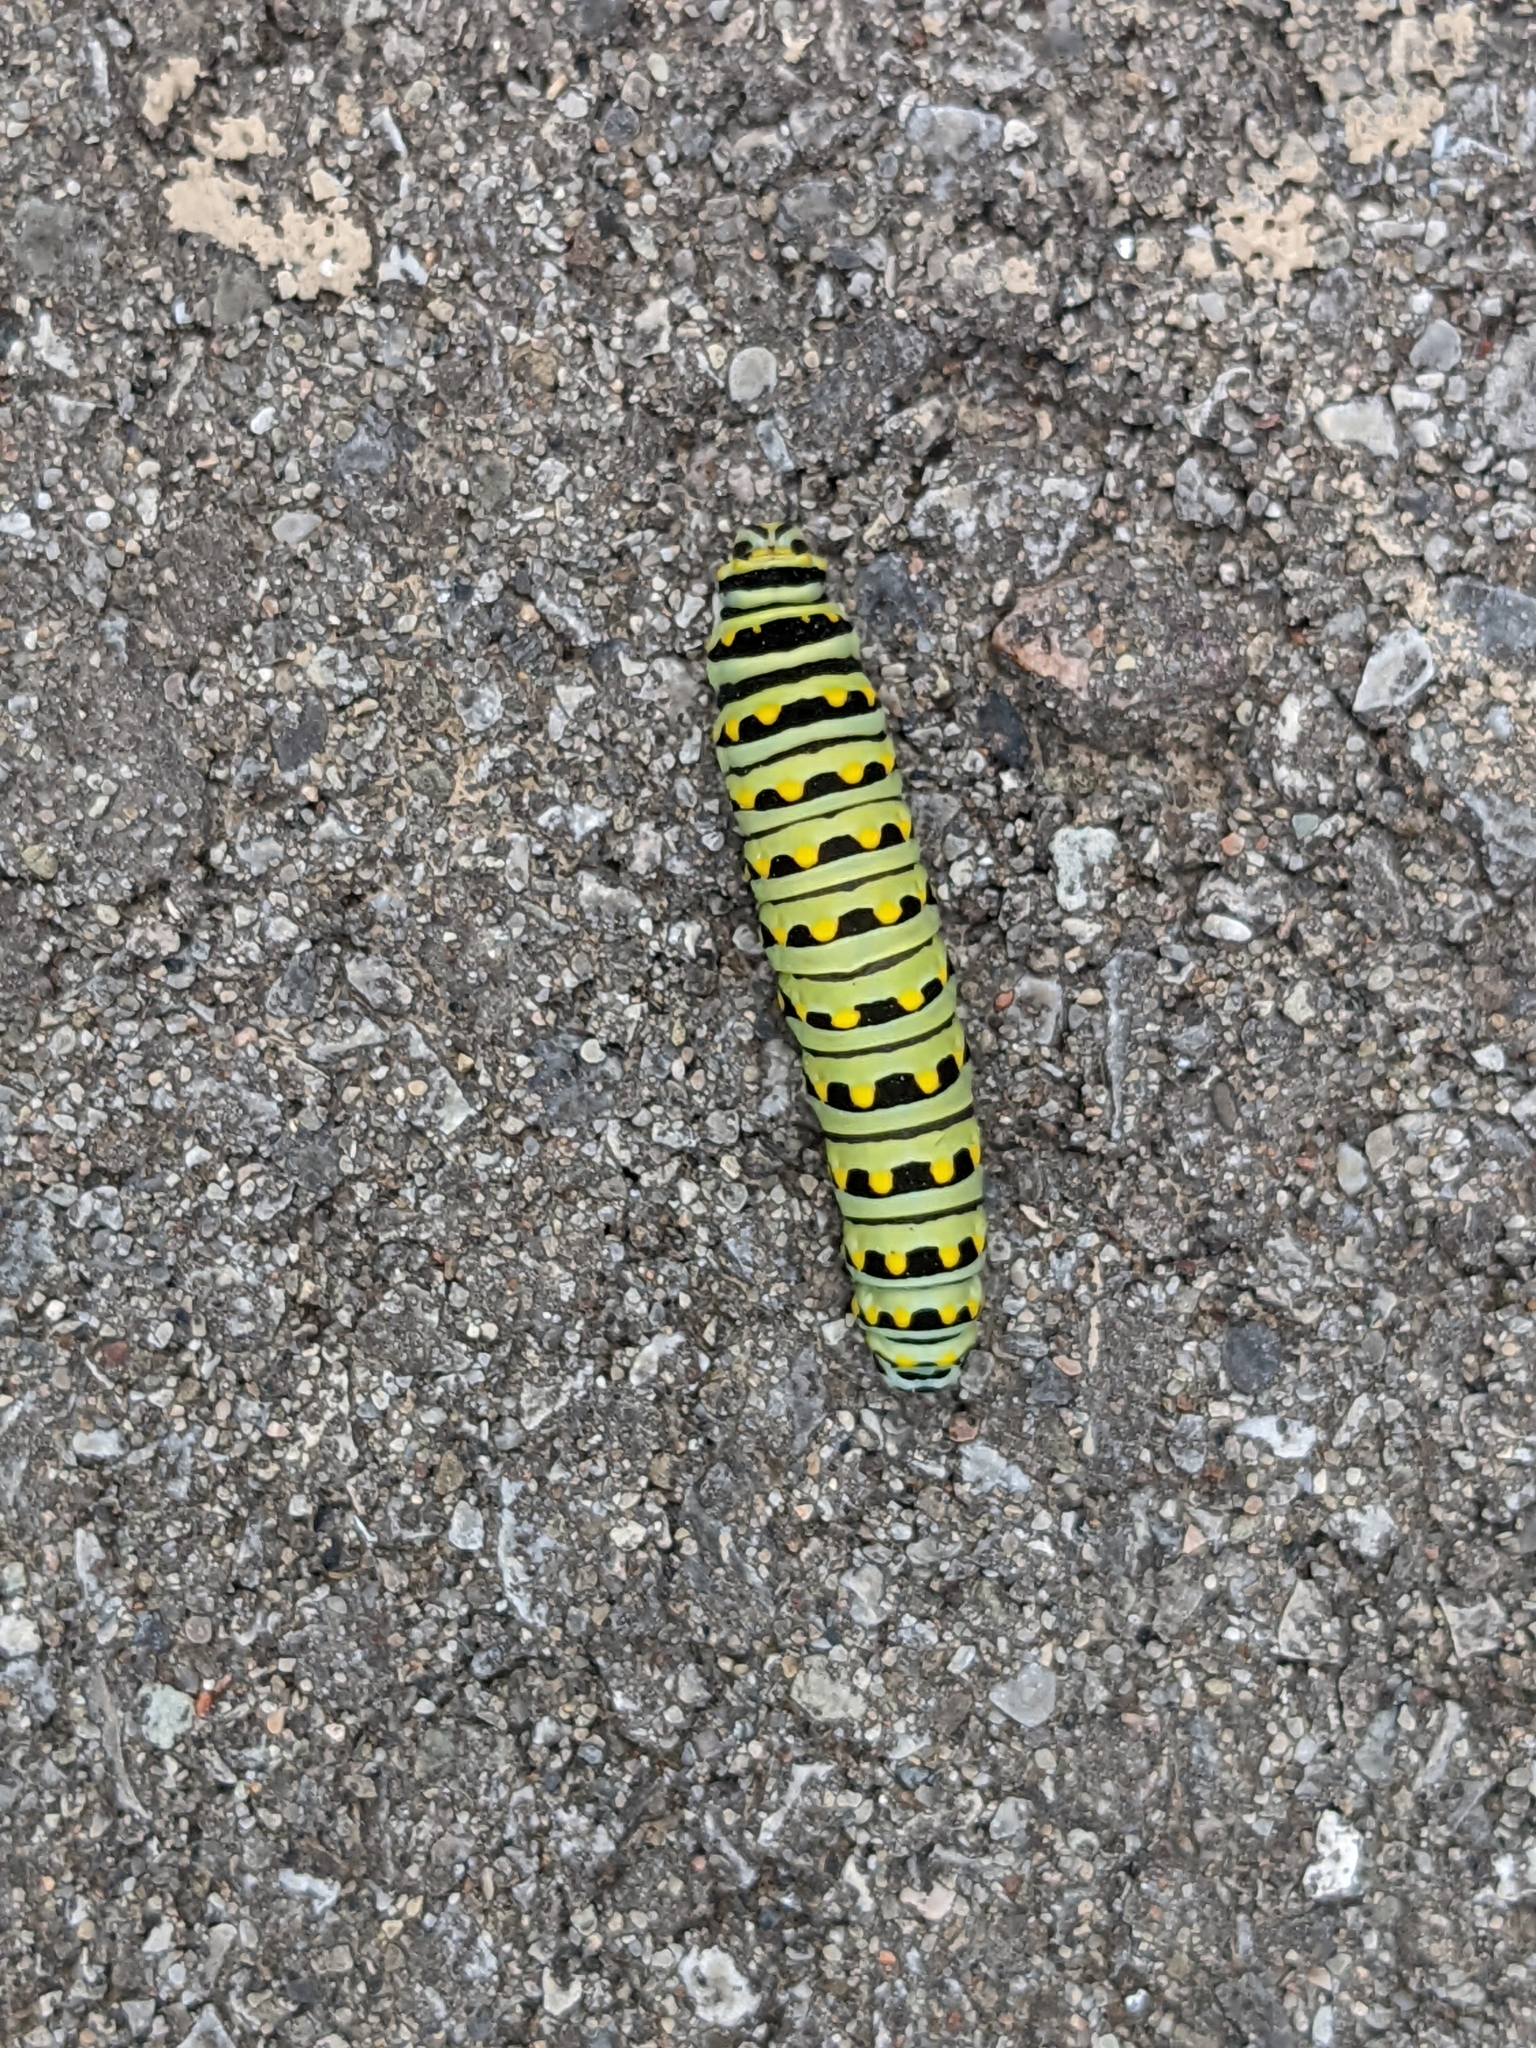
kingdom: Animalia
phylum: Arthropoda
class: Insecta
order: Lepidoptera
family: Papilionidae
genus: Papilio
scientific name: Papilio polyxenes
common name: Black swallowtail
